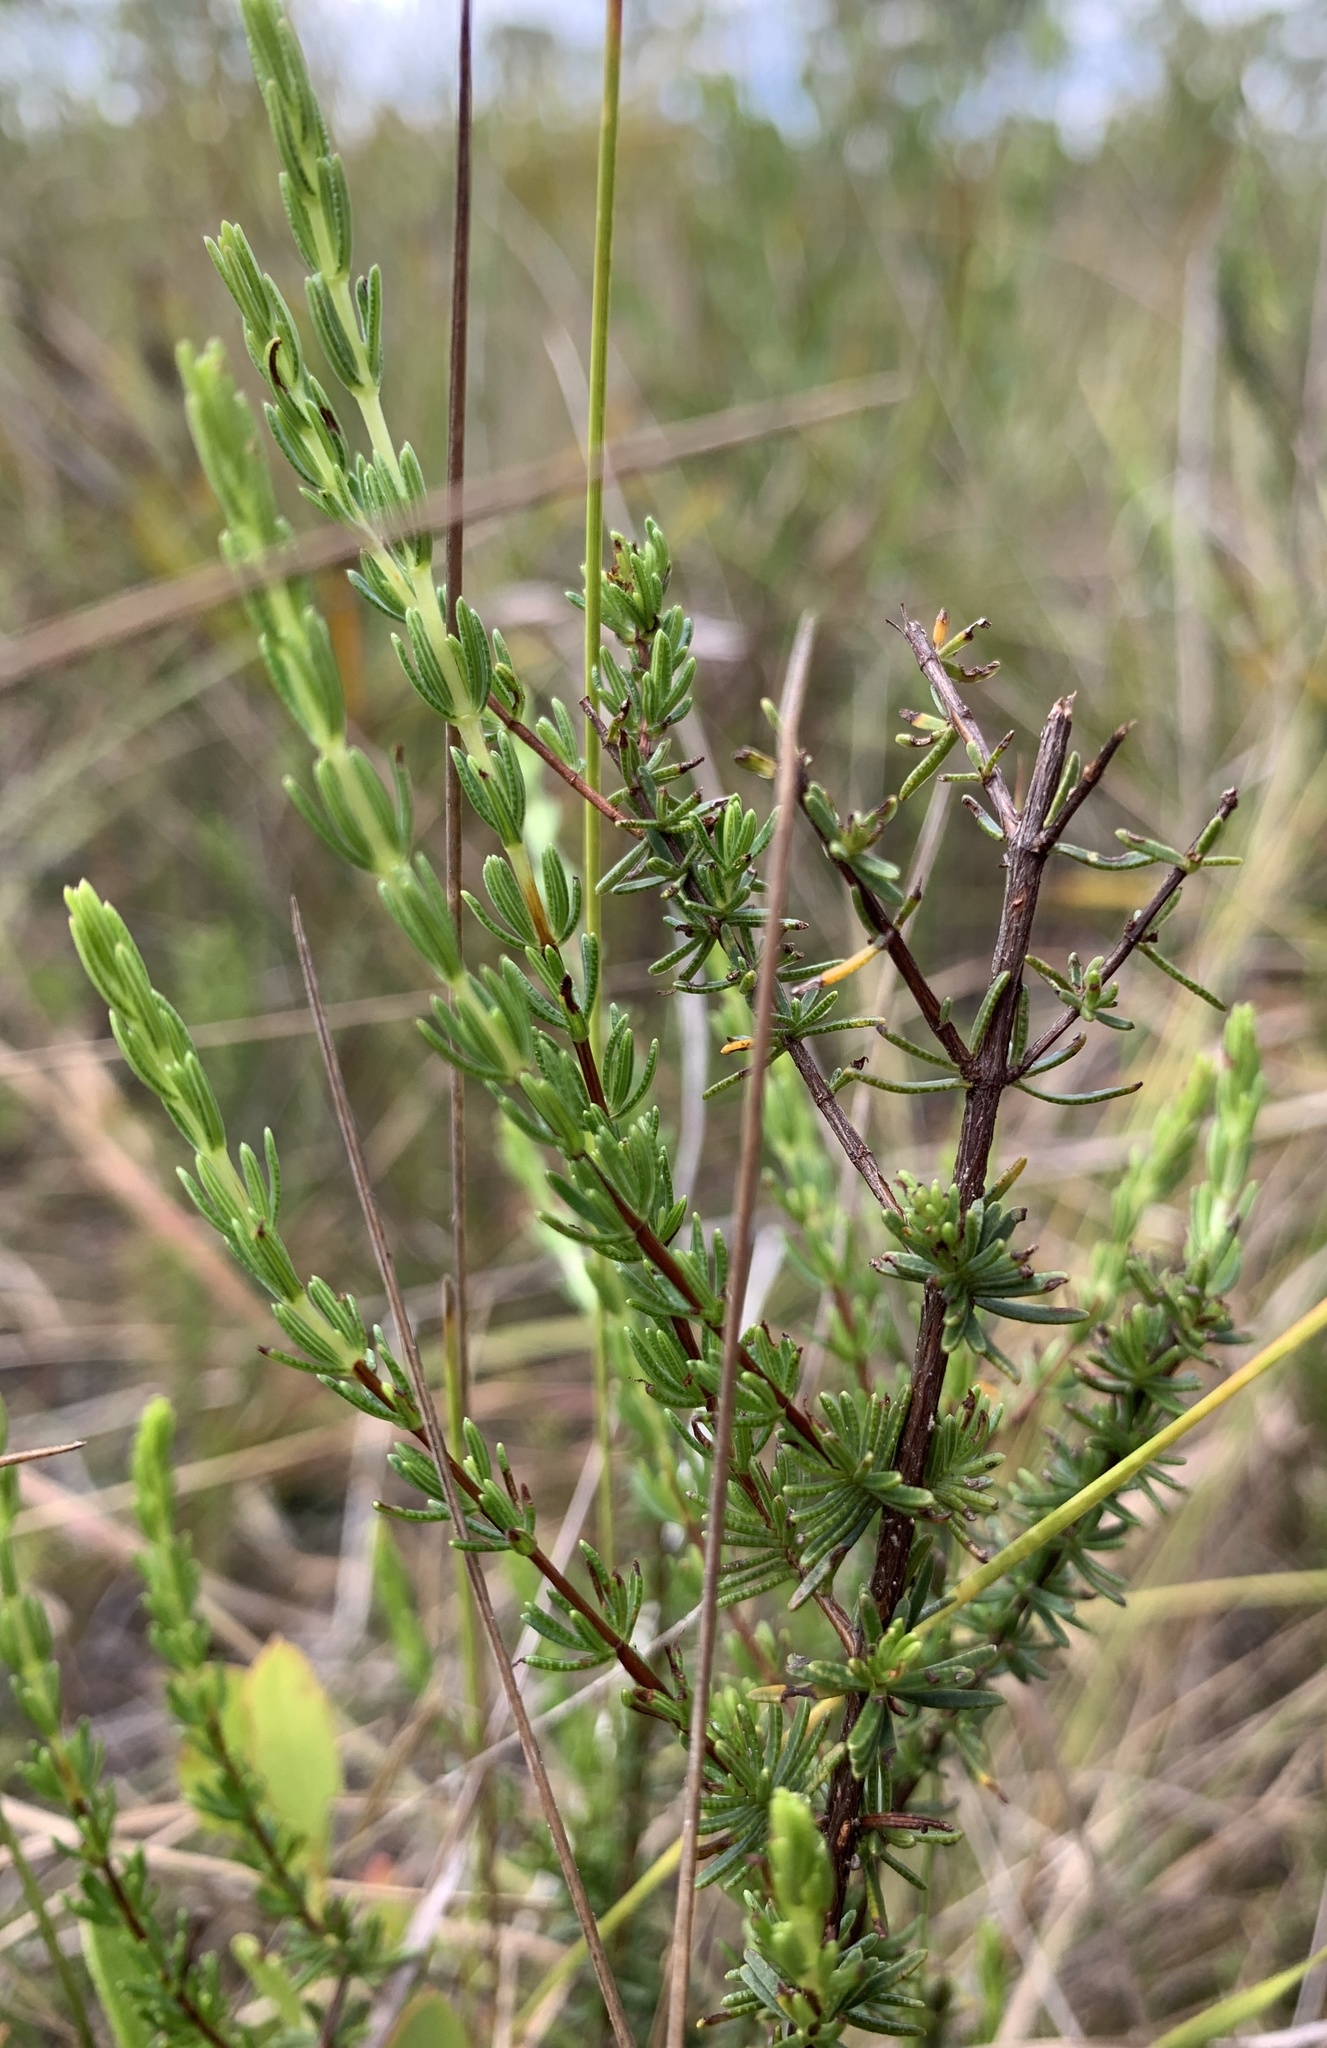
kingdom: Plantae
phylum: Tracheophyta
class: Magnoliopsida
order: Malpighiales
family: Hypericaceae
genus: Hypericum
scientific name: Hypericum tenuifolium
